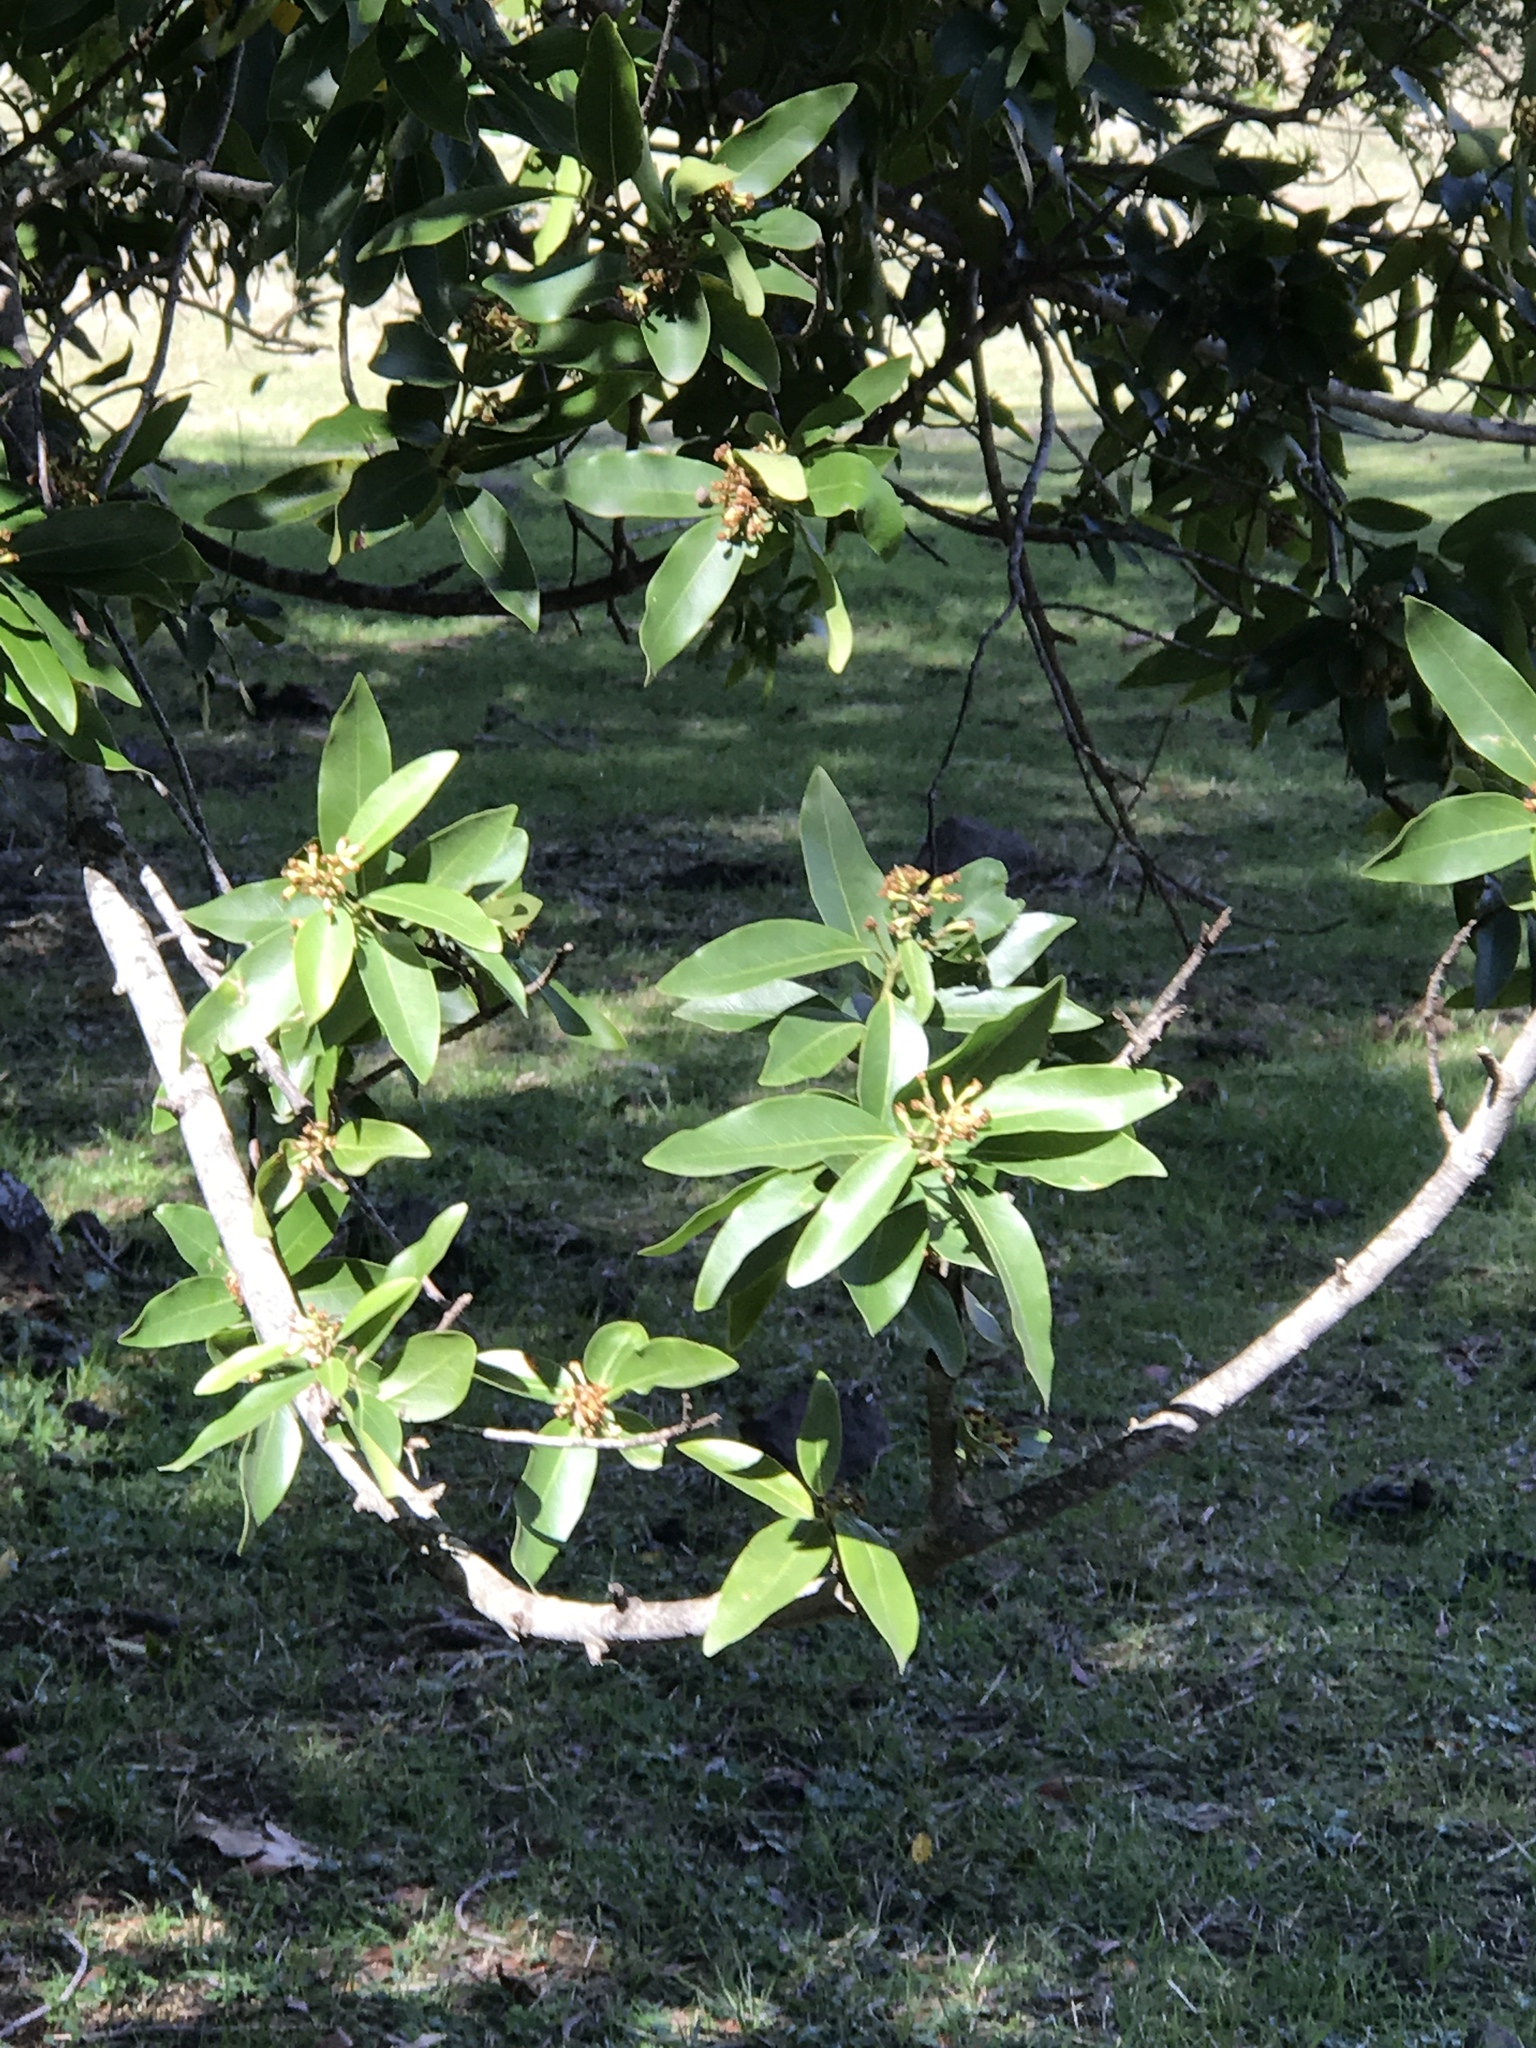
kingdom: Plantae
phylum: Tracheophyta
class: Magnoliopsida
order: Laurales
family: Lauraceae
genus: Umbellularia
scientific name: Umbellularia californica
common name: California bay
